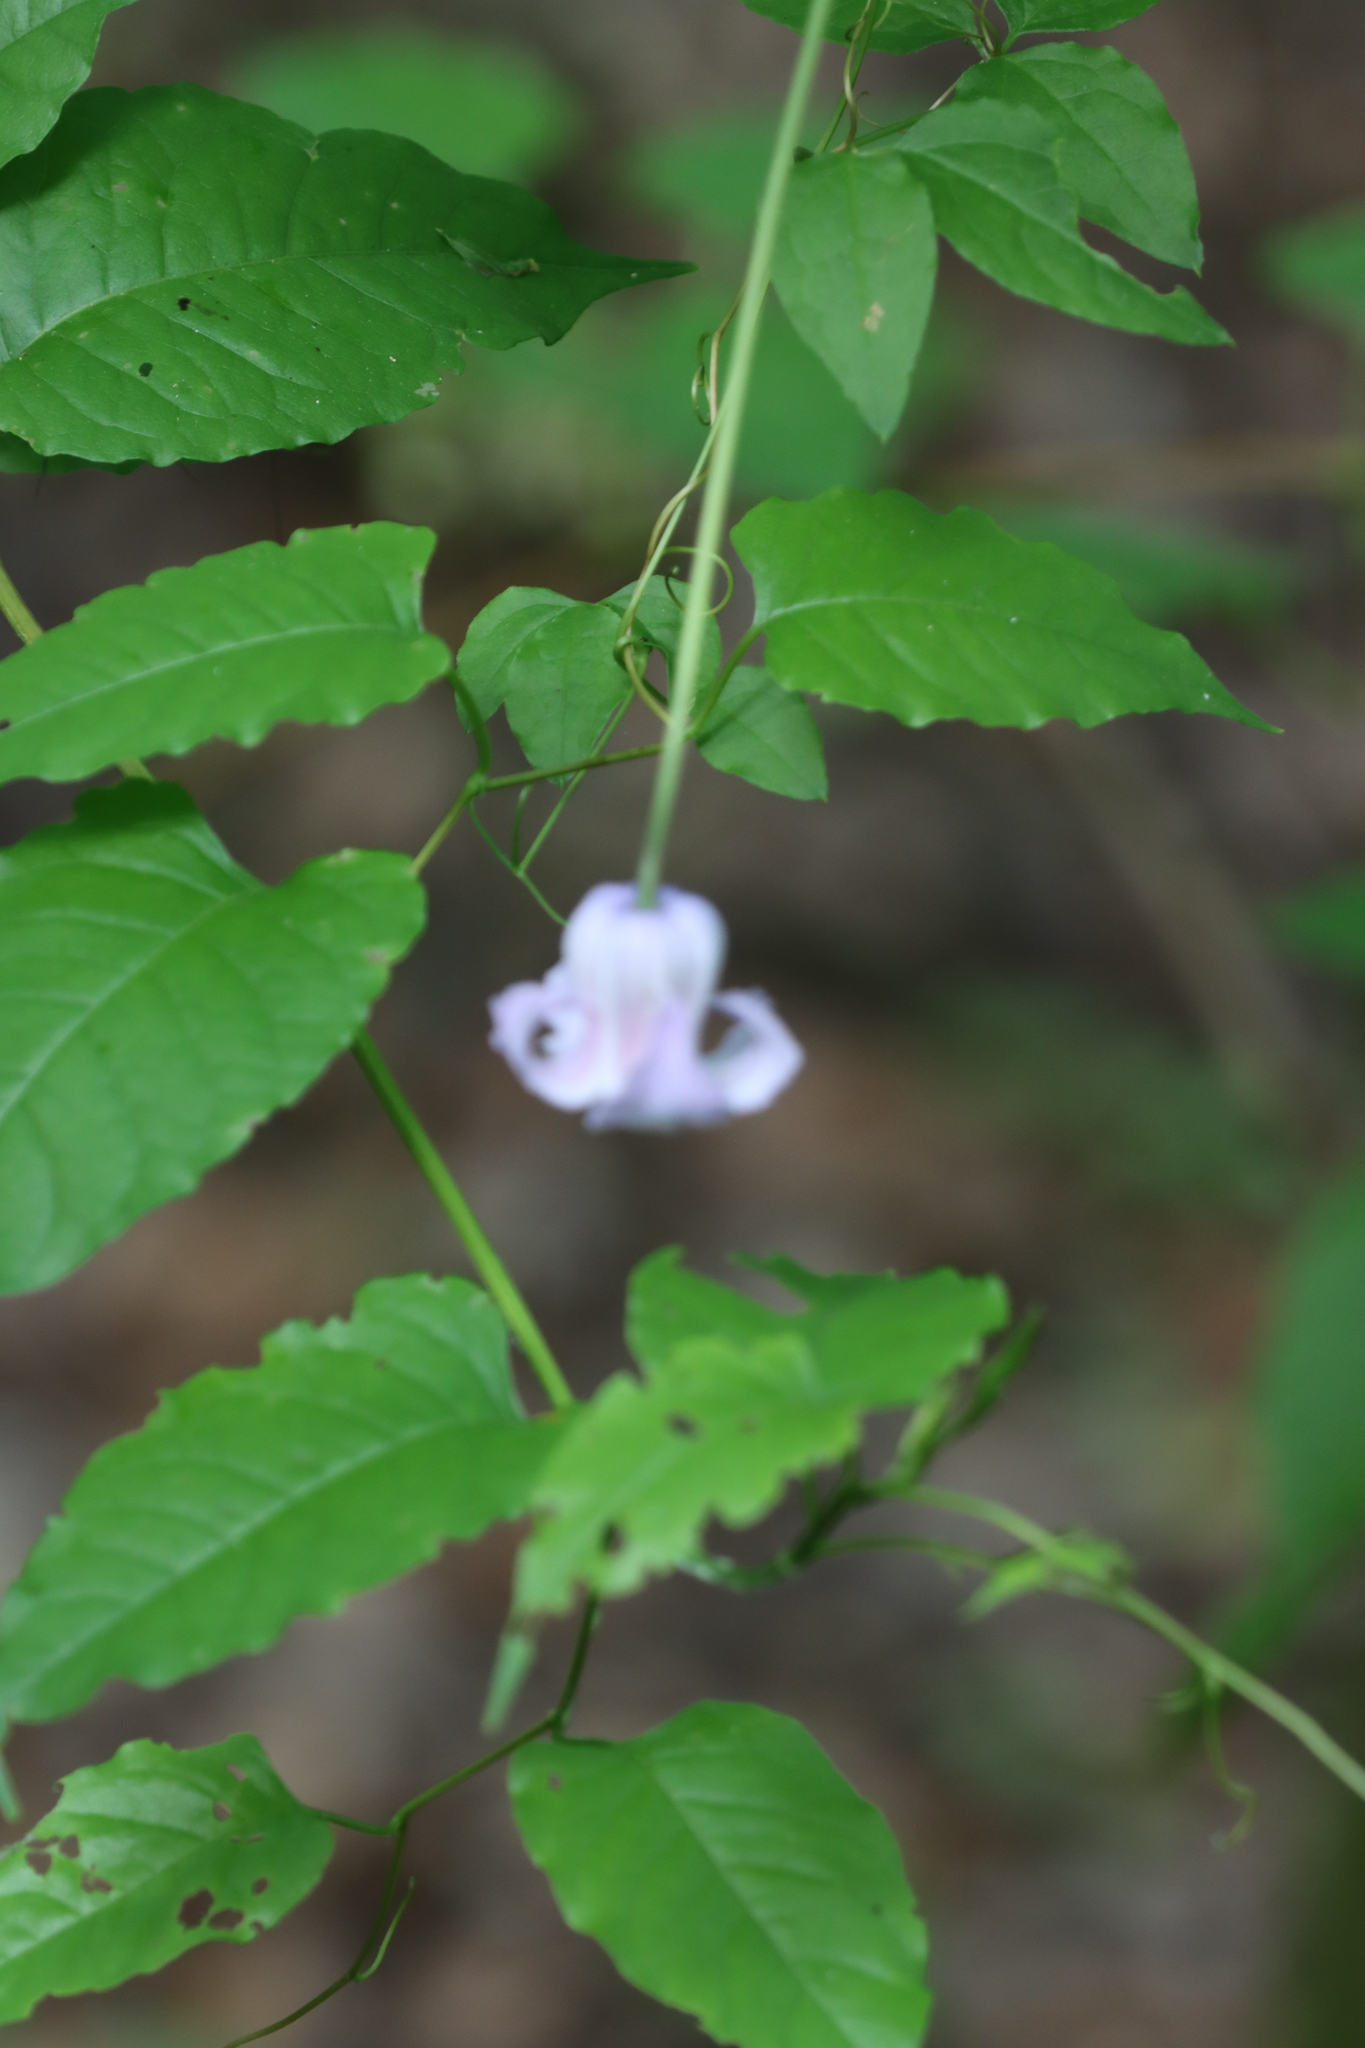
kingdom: Plantae
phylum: Tracheophyta
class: Magnoliopsida
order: Ranunculales
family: Ranunculaceae
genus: Clematis
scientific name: Clematis crispa
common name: Curly clematis
